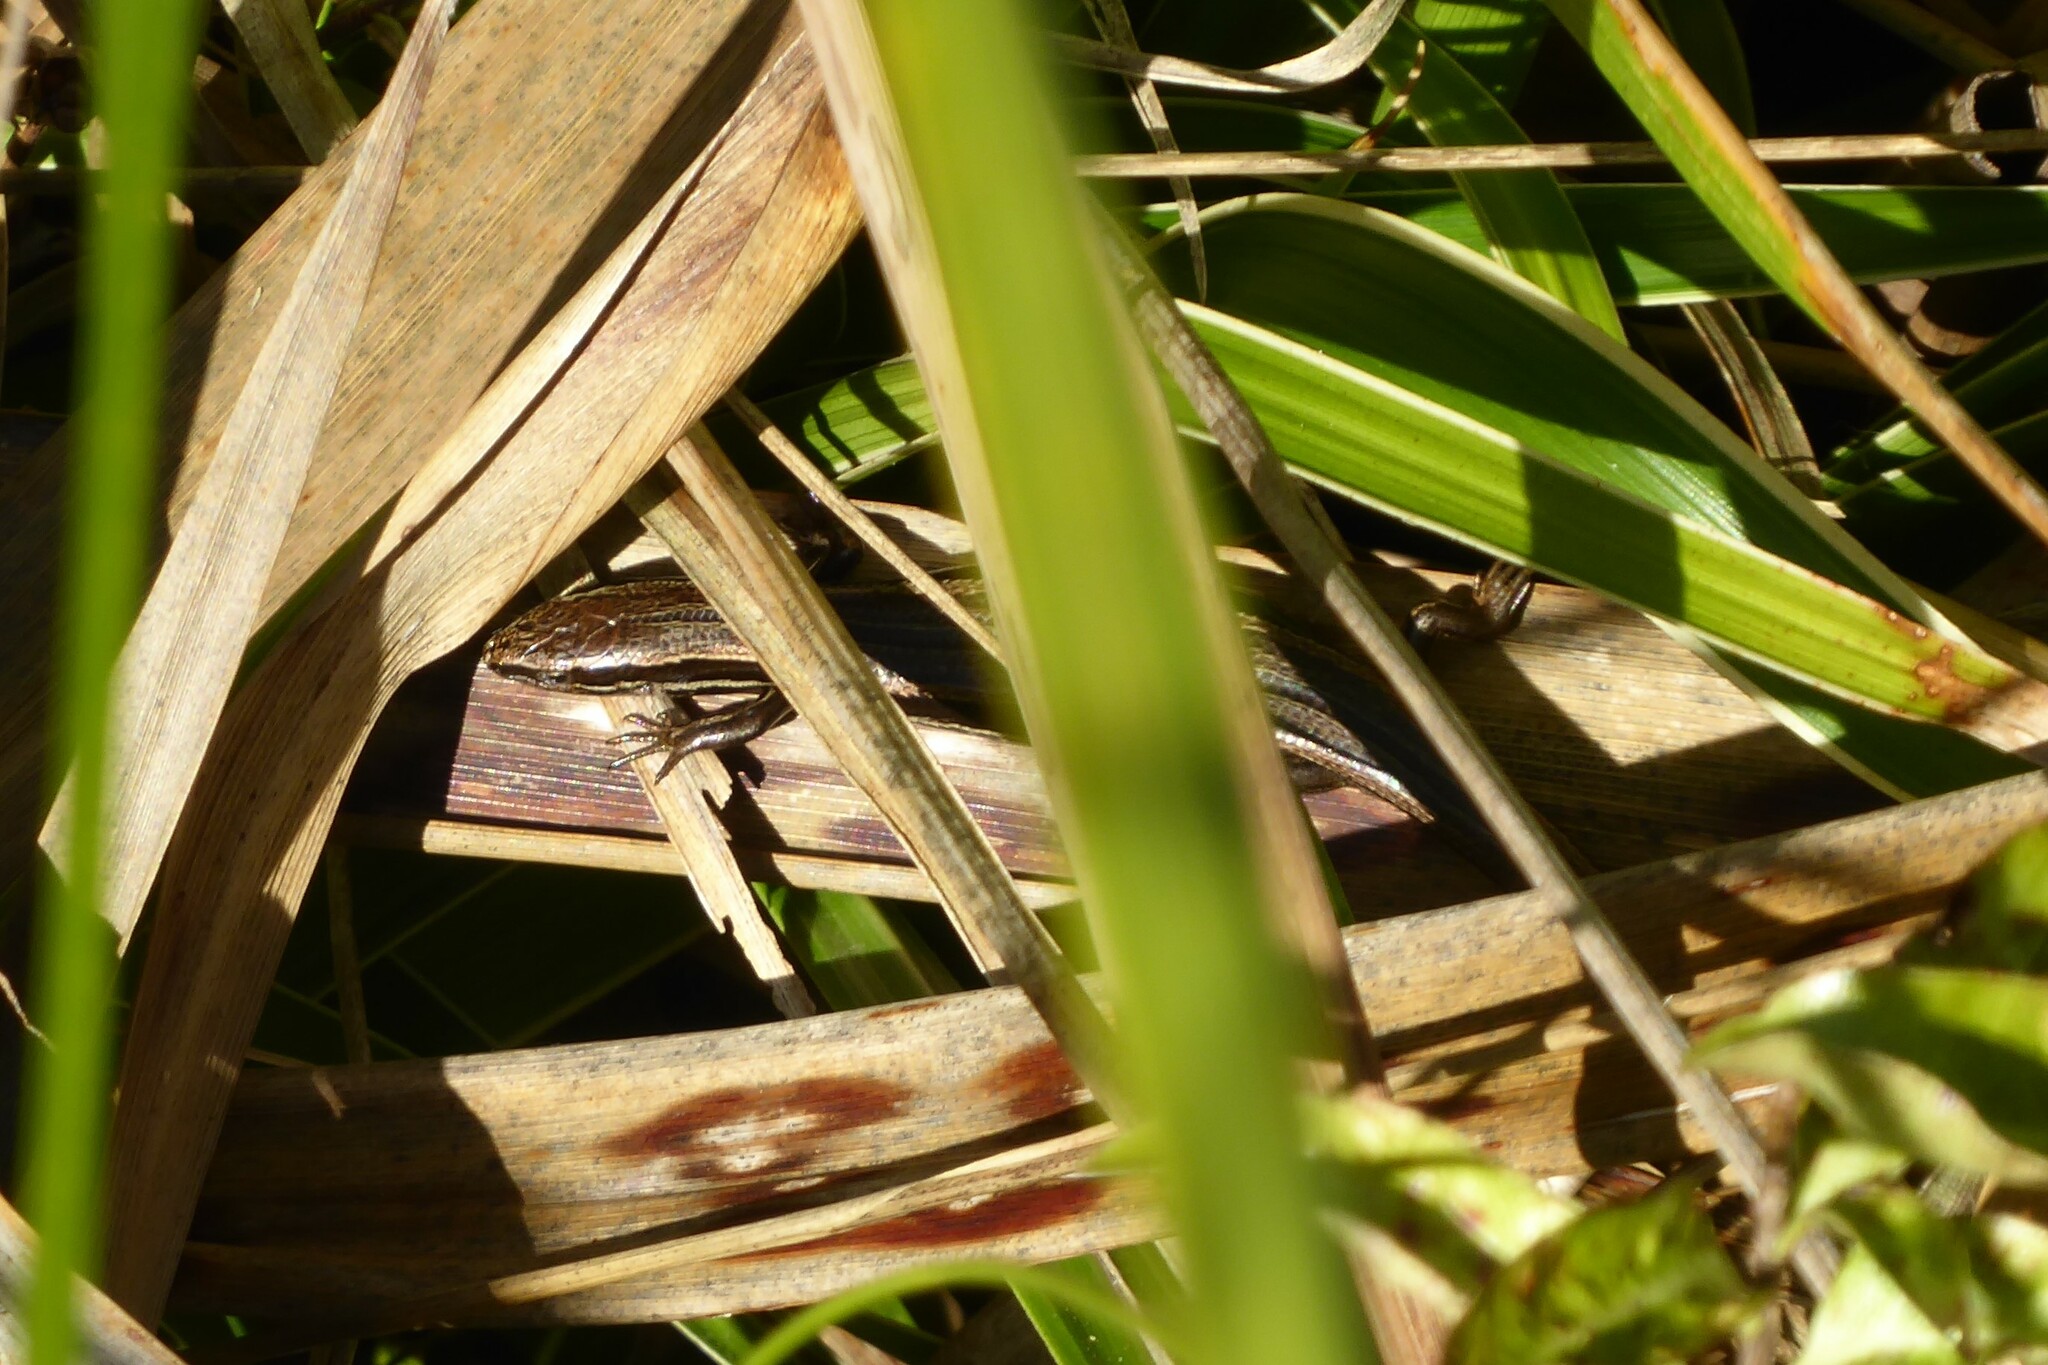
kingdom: Animalia
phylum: Chordata
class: Squamata
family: Scincidae
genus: Oligosoma
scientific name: Oligosoma polychroma
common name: Common new zealand skink
